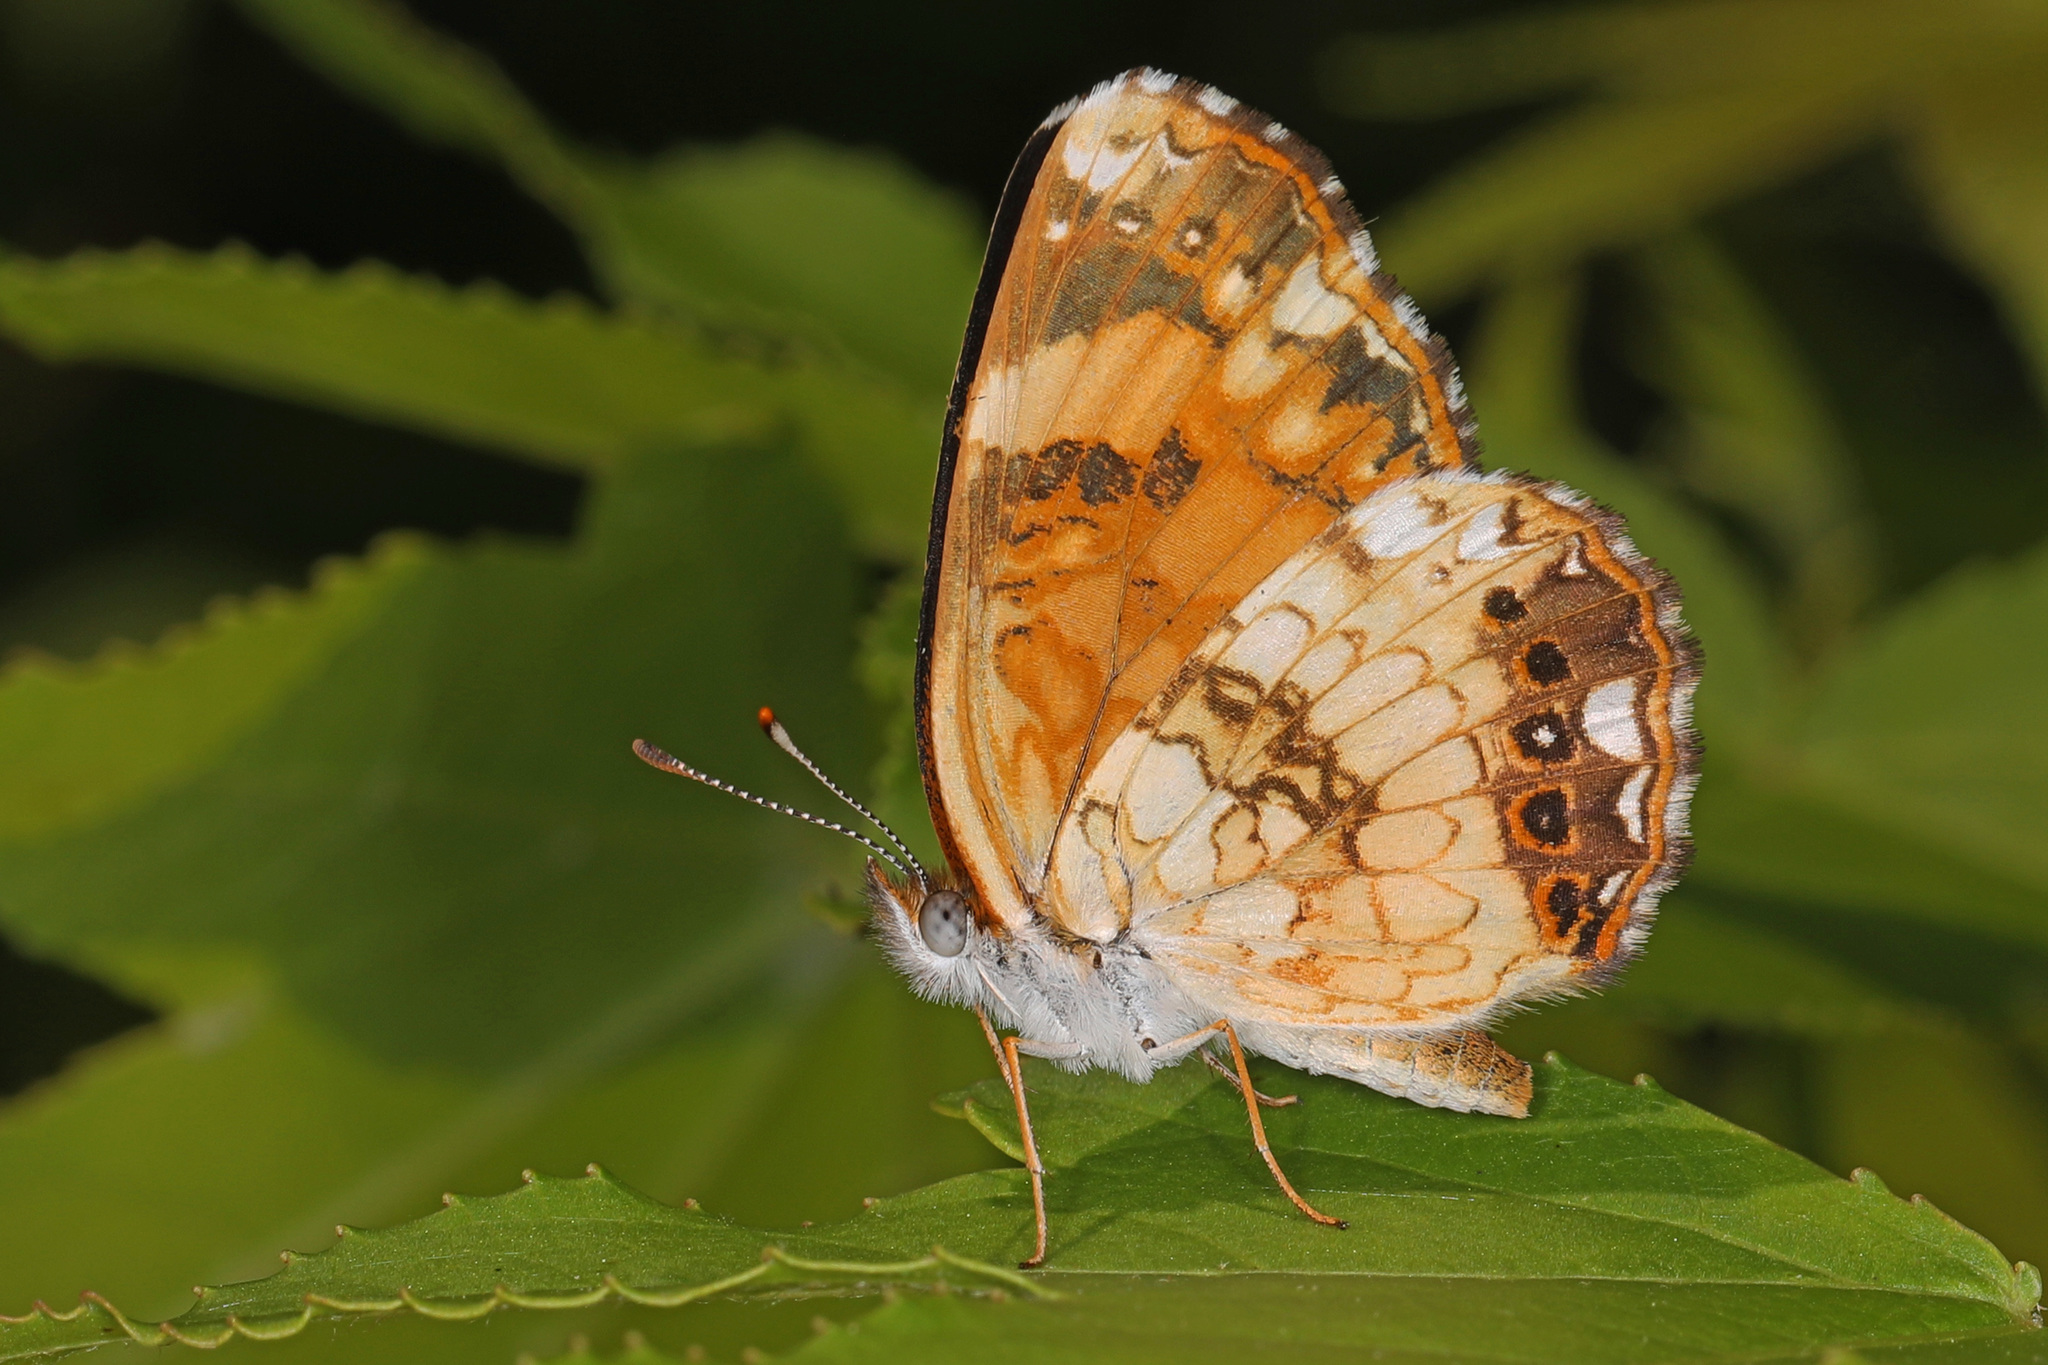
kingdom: Animalia
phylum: Arthropoda
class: Insecta
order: Lepidoptera
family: Nymphalidae
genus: Chlosyne
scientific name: Chlosyne nycteis
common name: Silvery checkerspot
